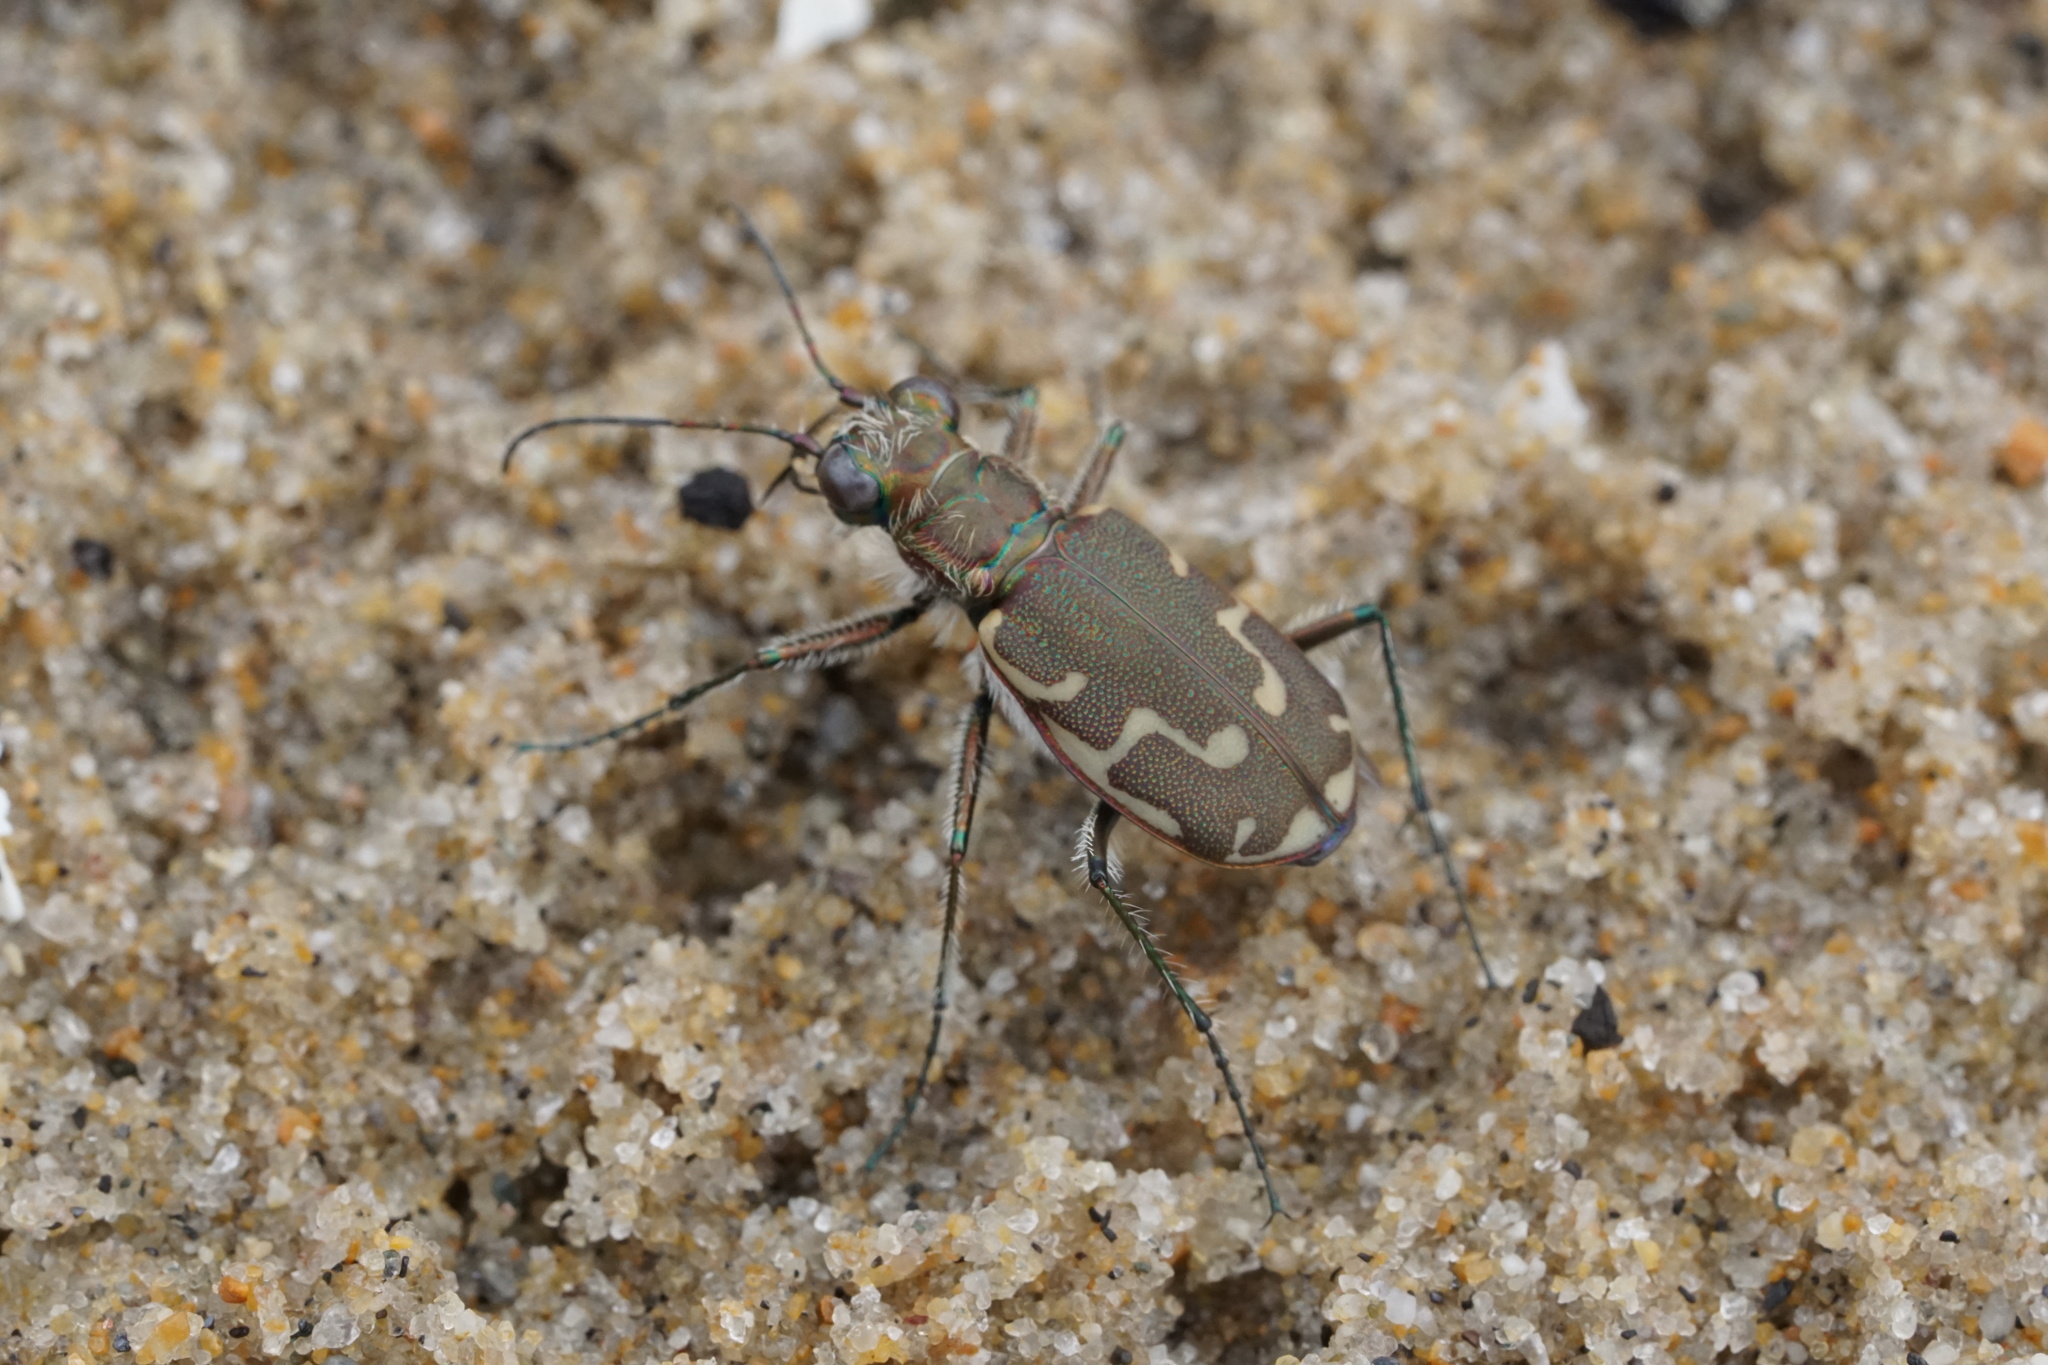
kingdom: Animalia
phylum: Arthropoda
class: Insecta
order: Coleoptera
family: Carabidae
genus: Cicindela
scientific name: Cicindela repanda
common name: Bronzed tiger beetle
